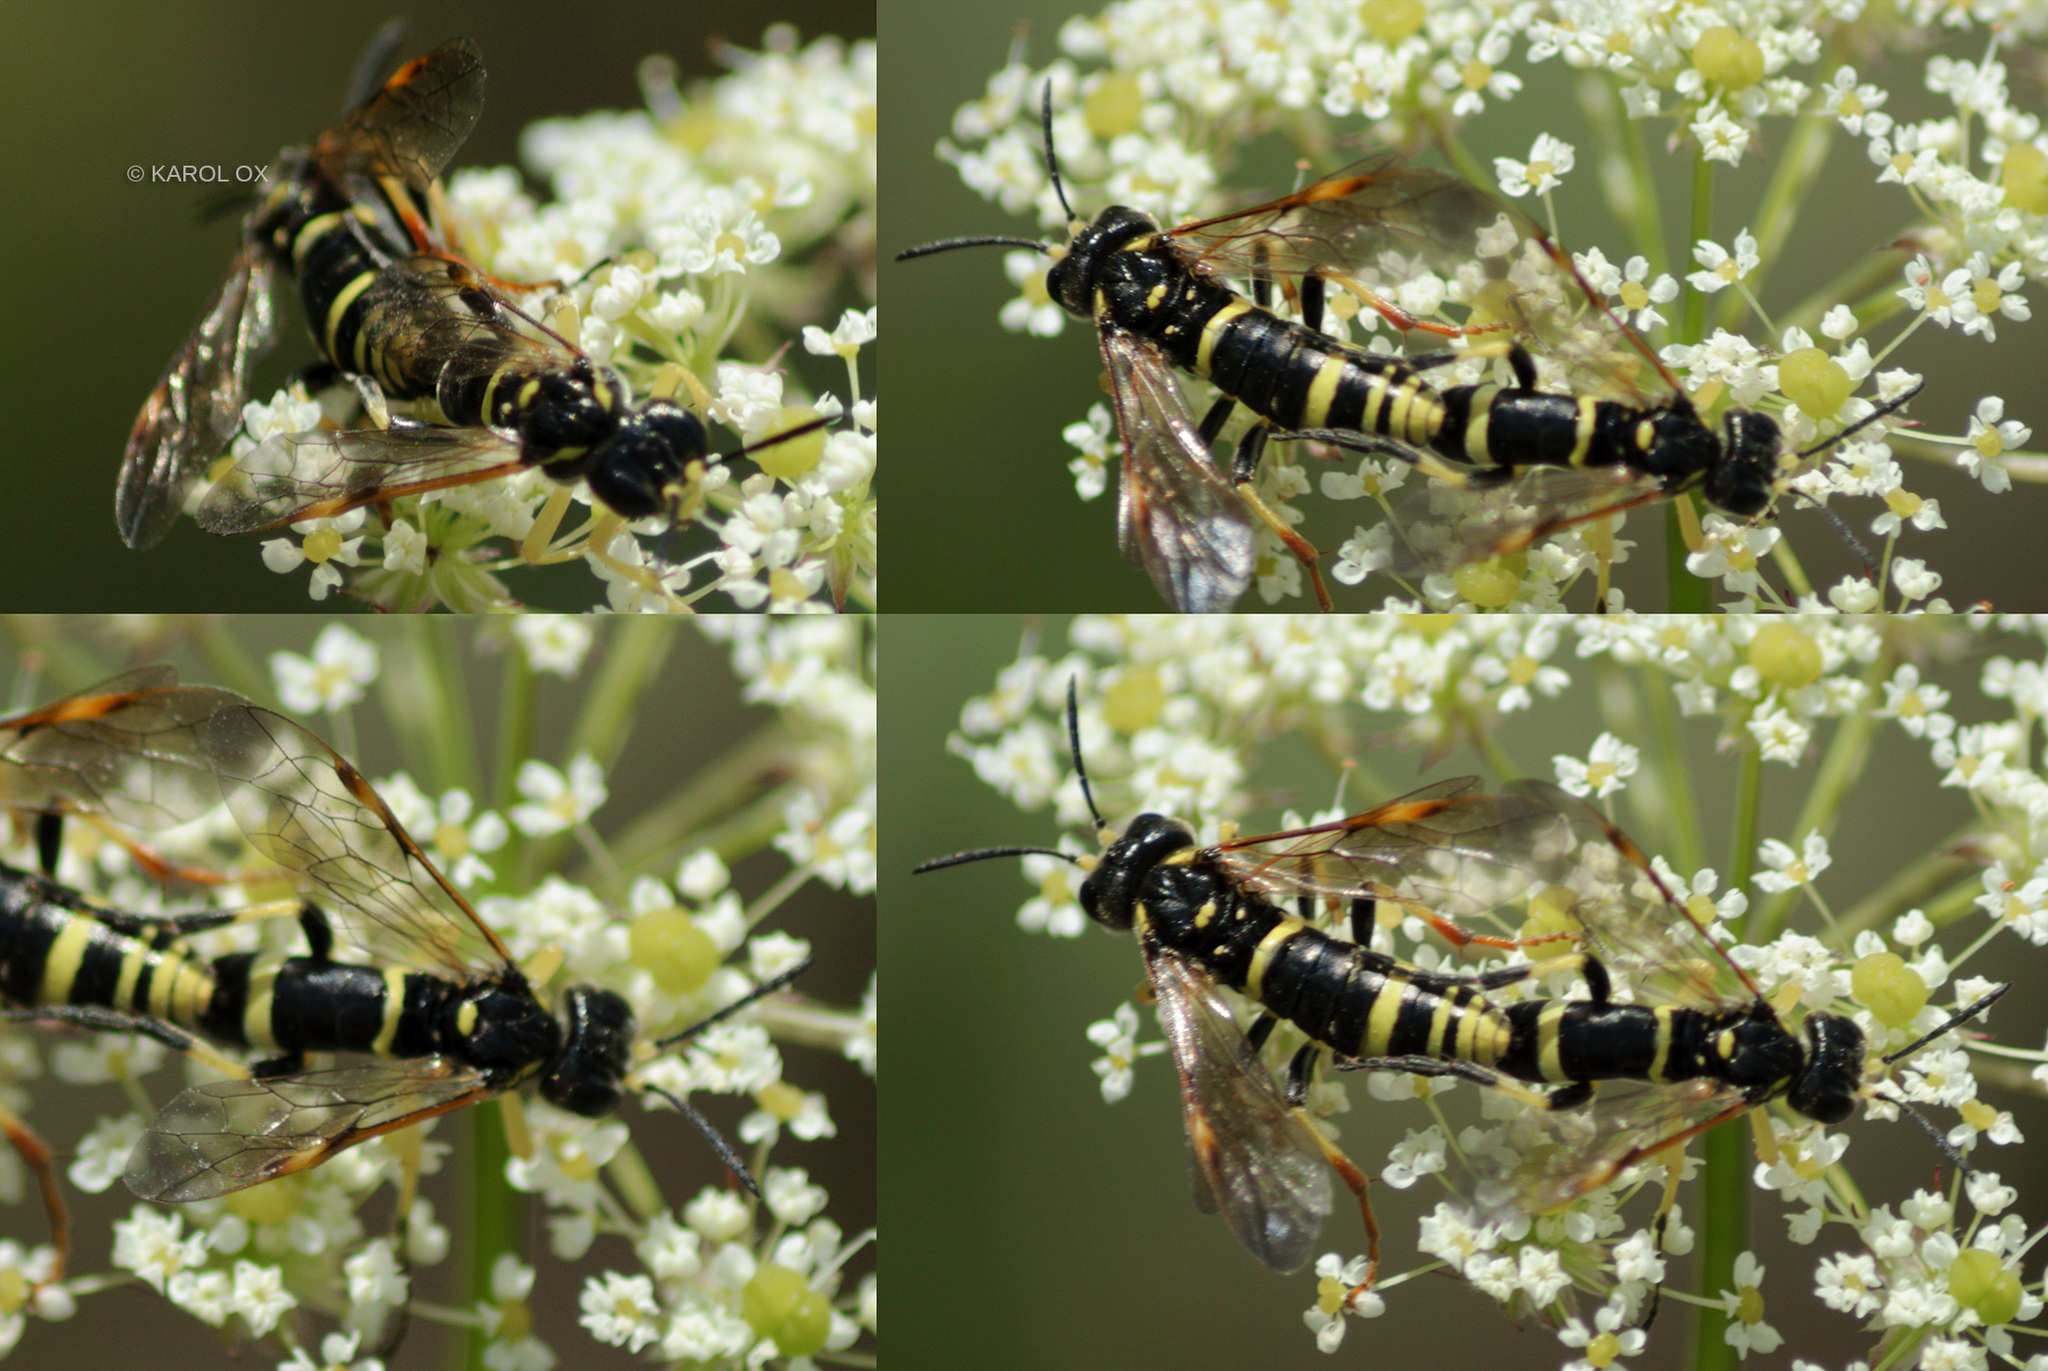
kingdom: Animalia
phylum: Arthropoda
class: Insecta
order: Hymenoptera
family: Tenthredinidae
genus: Tenthredo
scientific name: Tenthredo amoena
